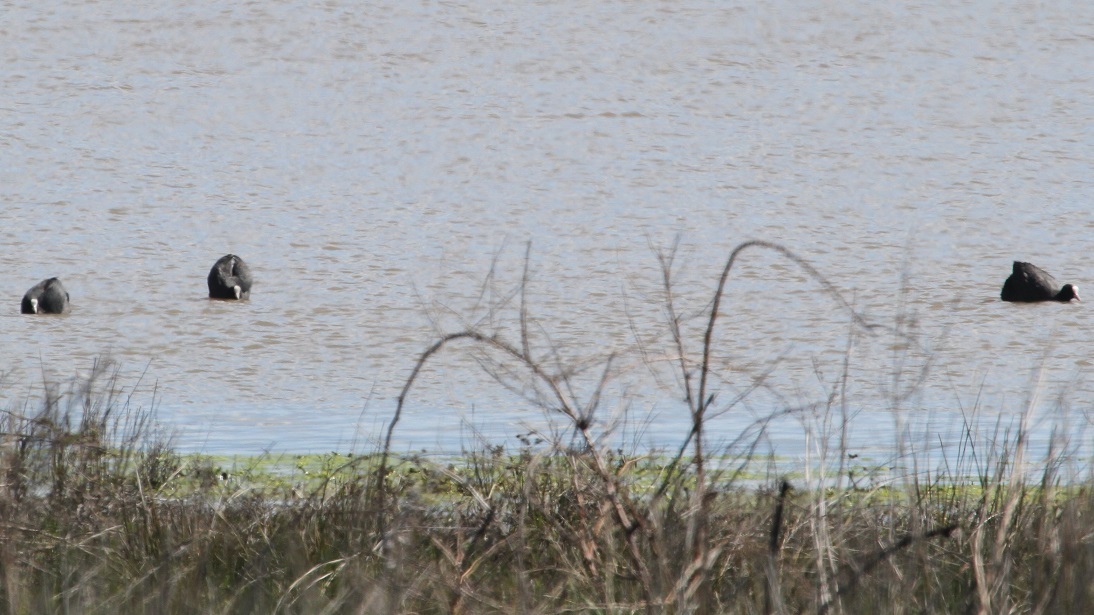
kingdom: Animalia
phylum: Chordata
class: Aves
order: Gruiformes
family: Rallidae
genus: Fulica
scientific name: Fulica atra
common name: Eurasian coot
